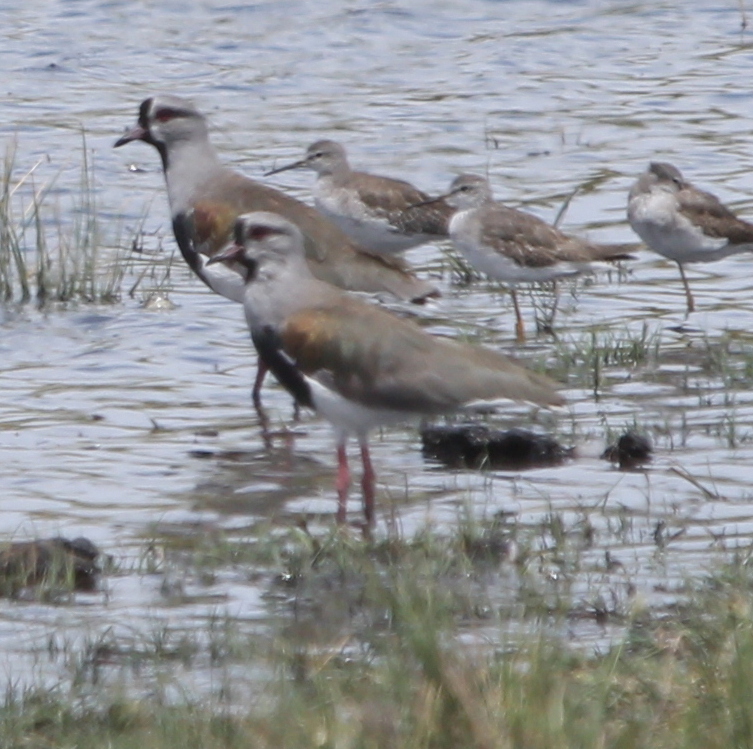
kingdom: Animalia
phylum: Chordata
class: Aves
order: Charadriiformes
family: Charadriidae
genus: Vanellus
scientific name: Vanellus chilensis
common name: Southern lapwing
